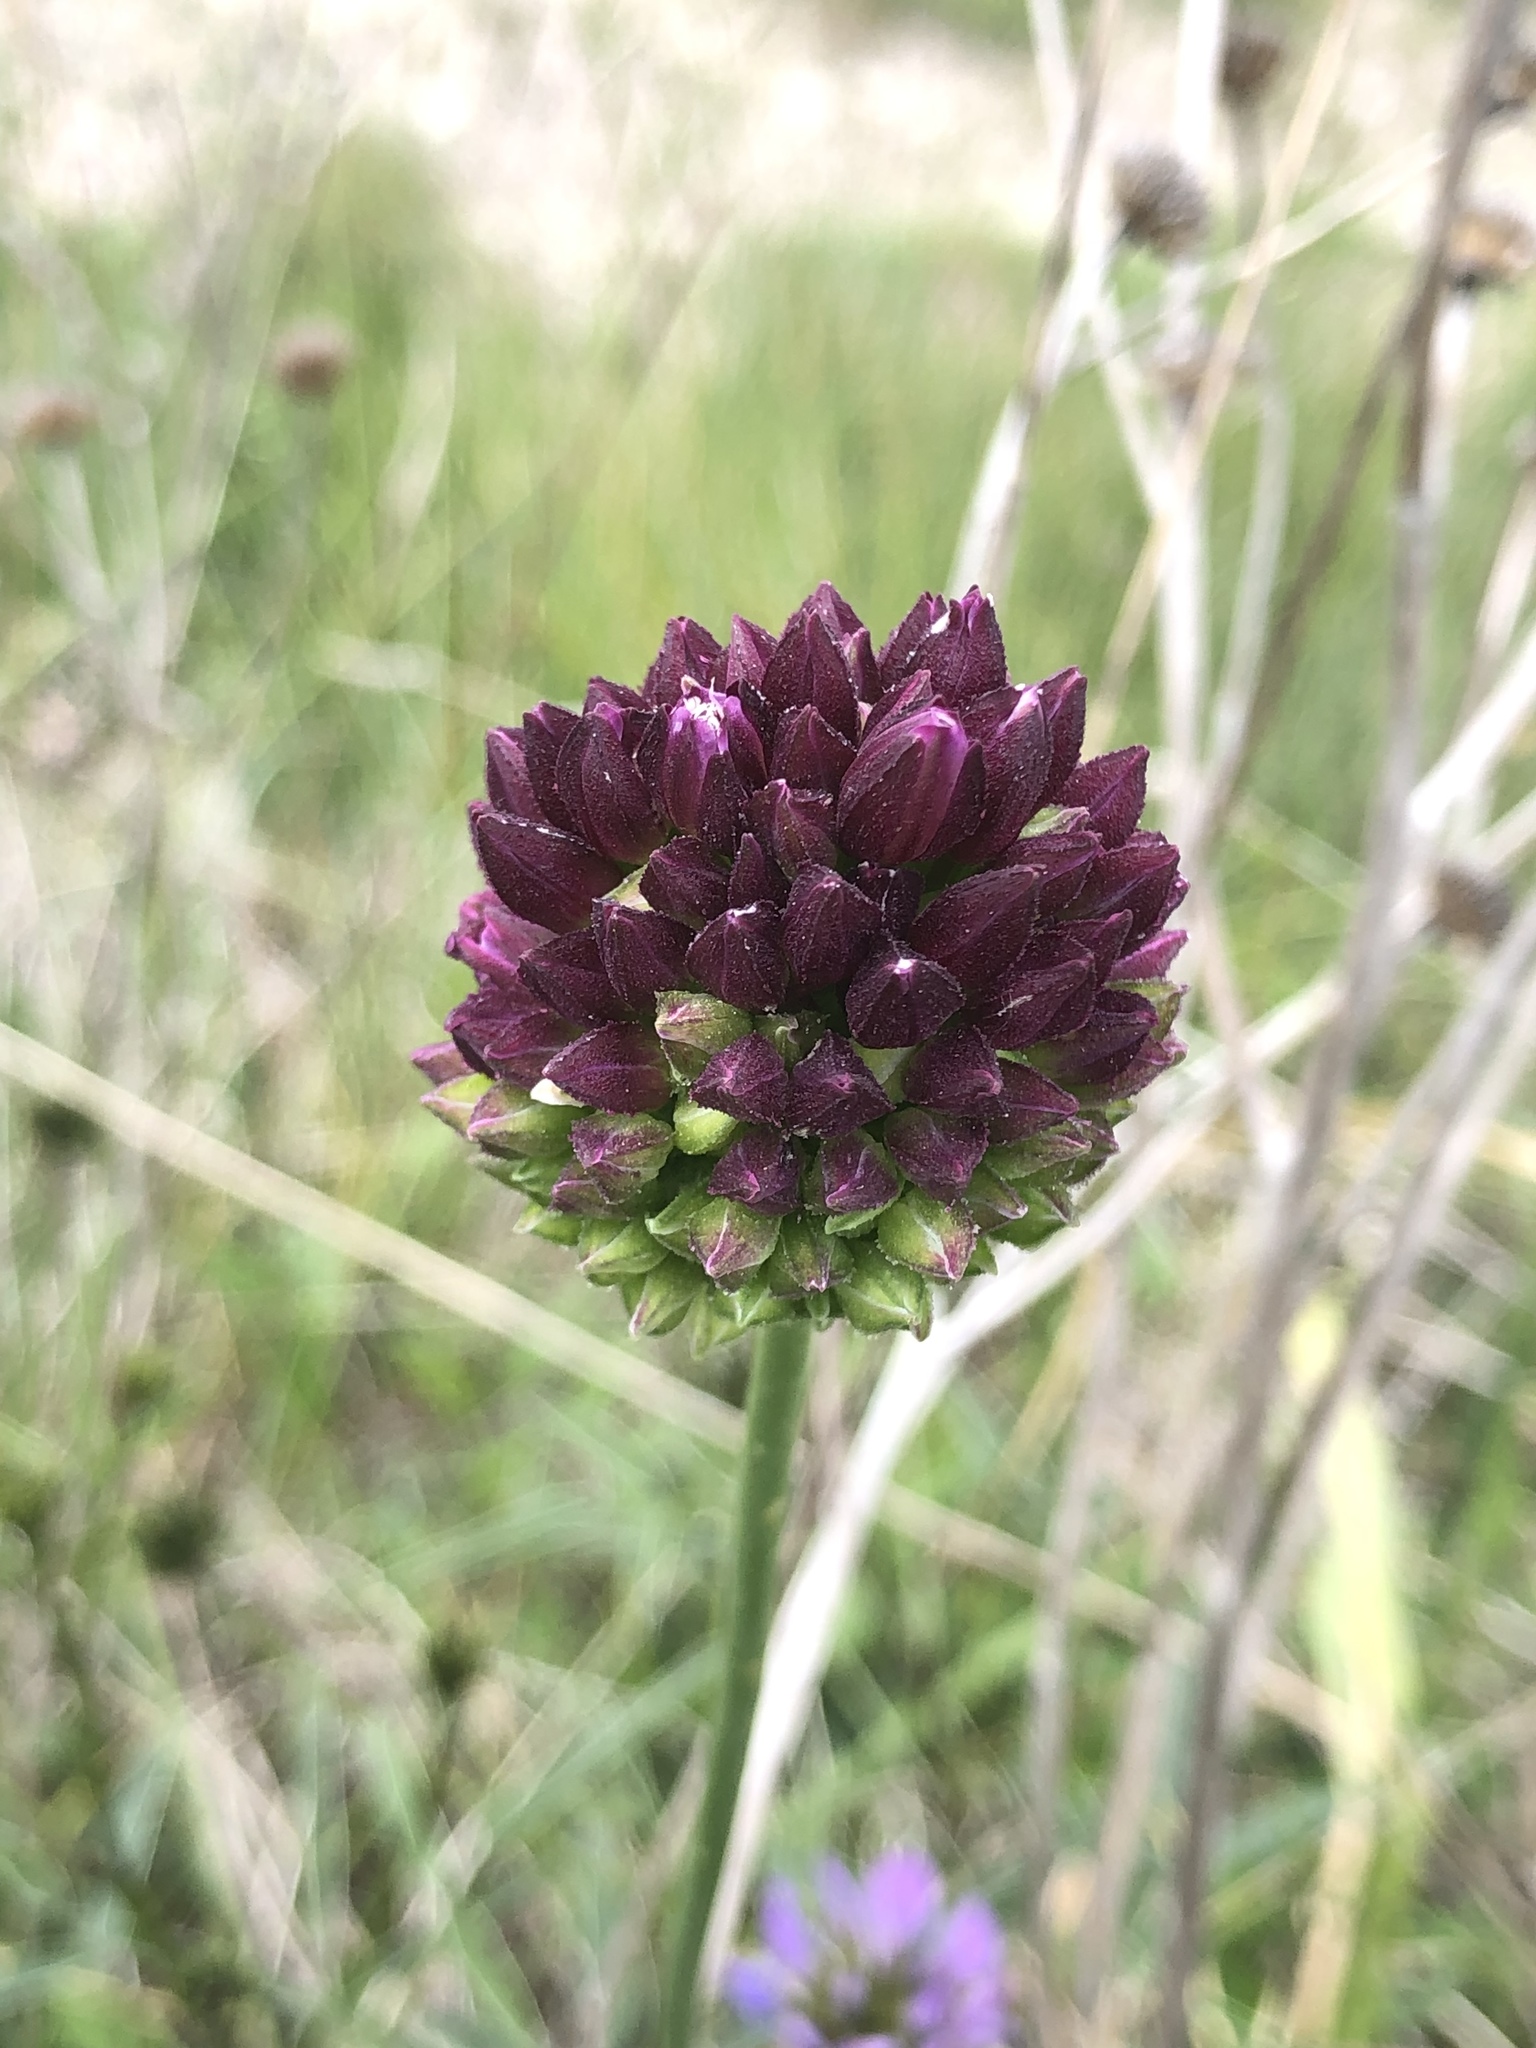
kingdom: Plantae
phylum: Tracheophyta
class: Liliopsida
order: Asparagales
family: Amaryllidaceae
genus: Allium
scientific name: Allium sphaerocephalon
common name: Round-headed leek
